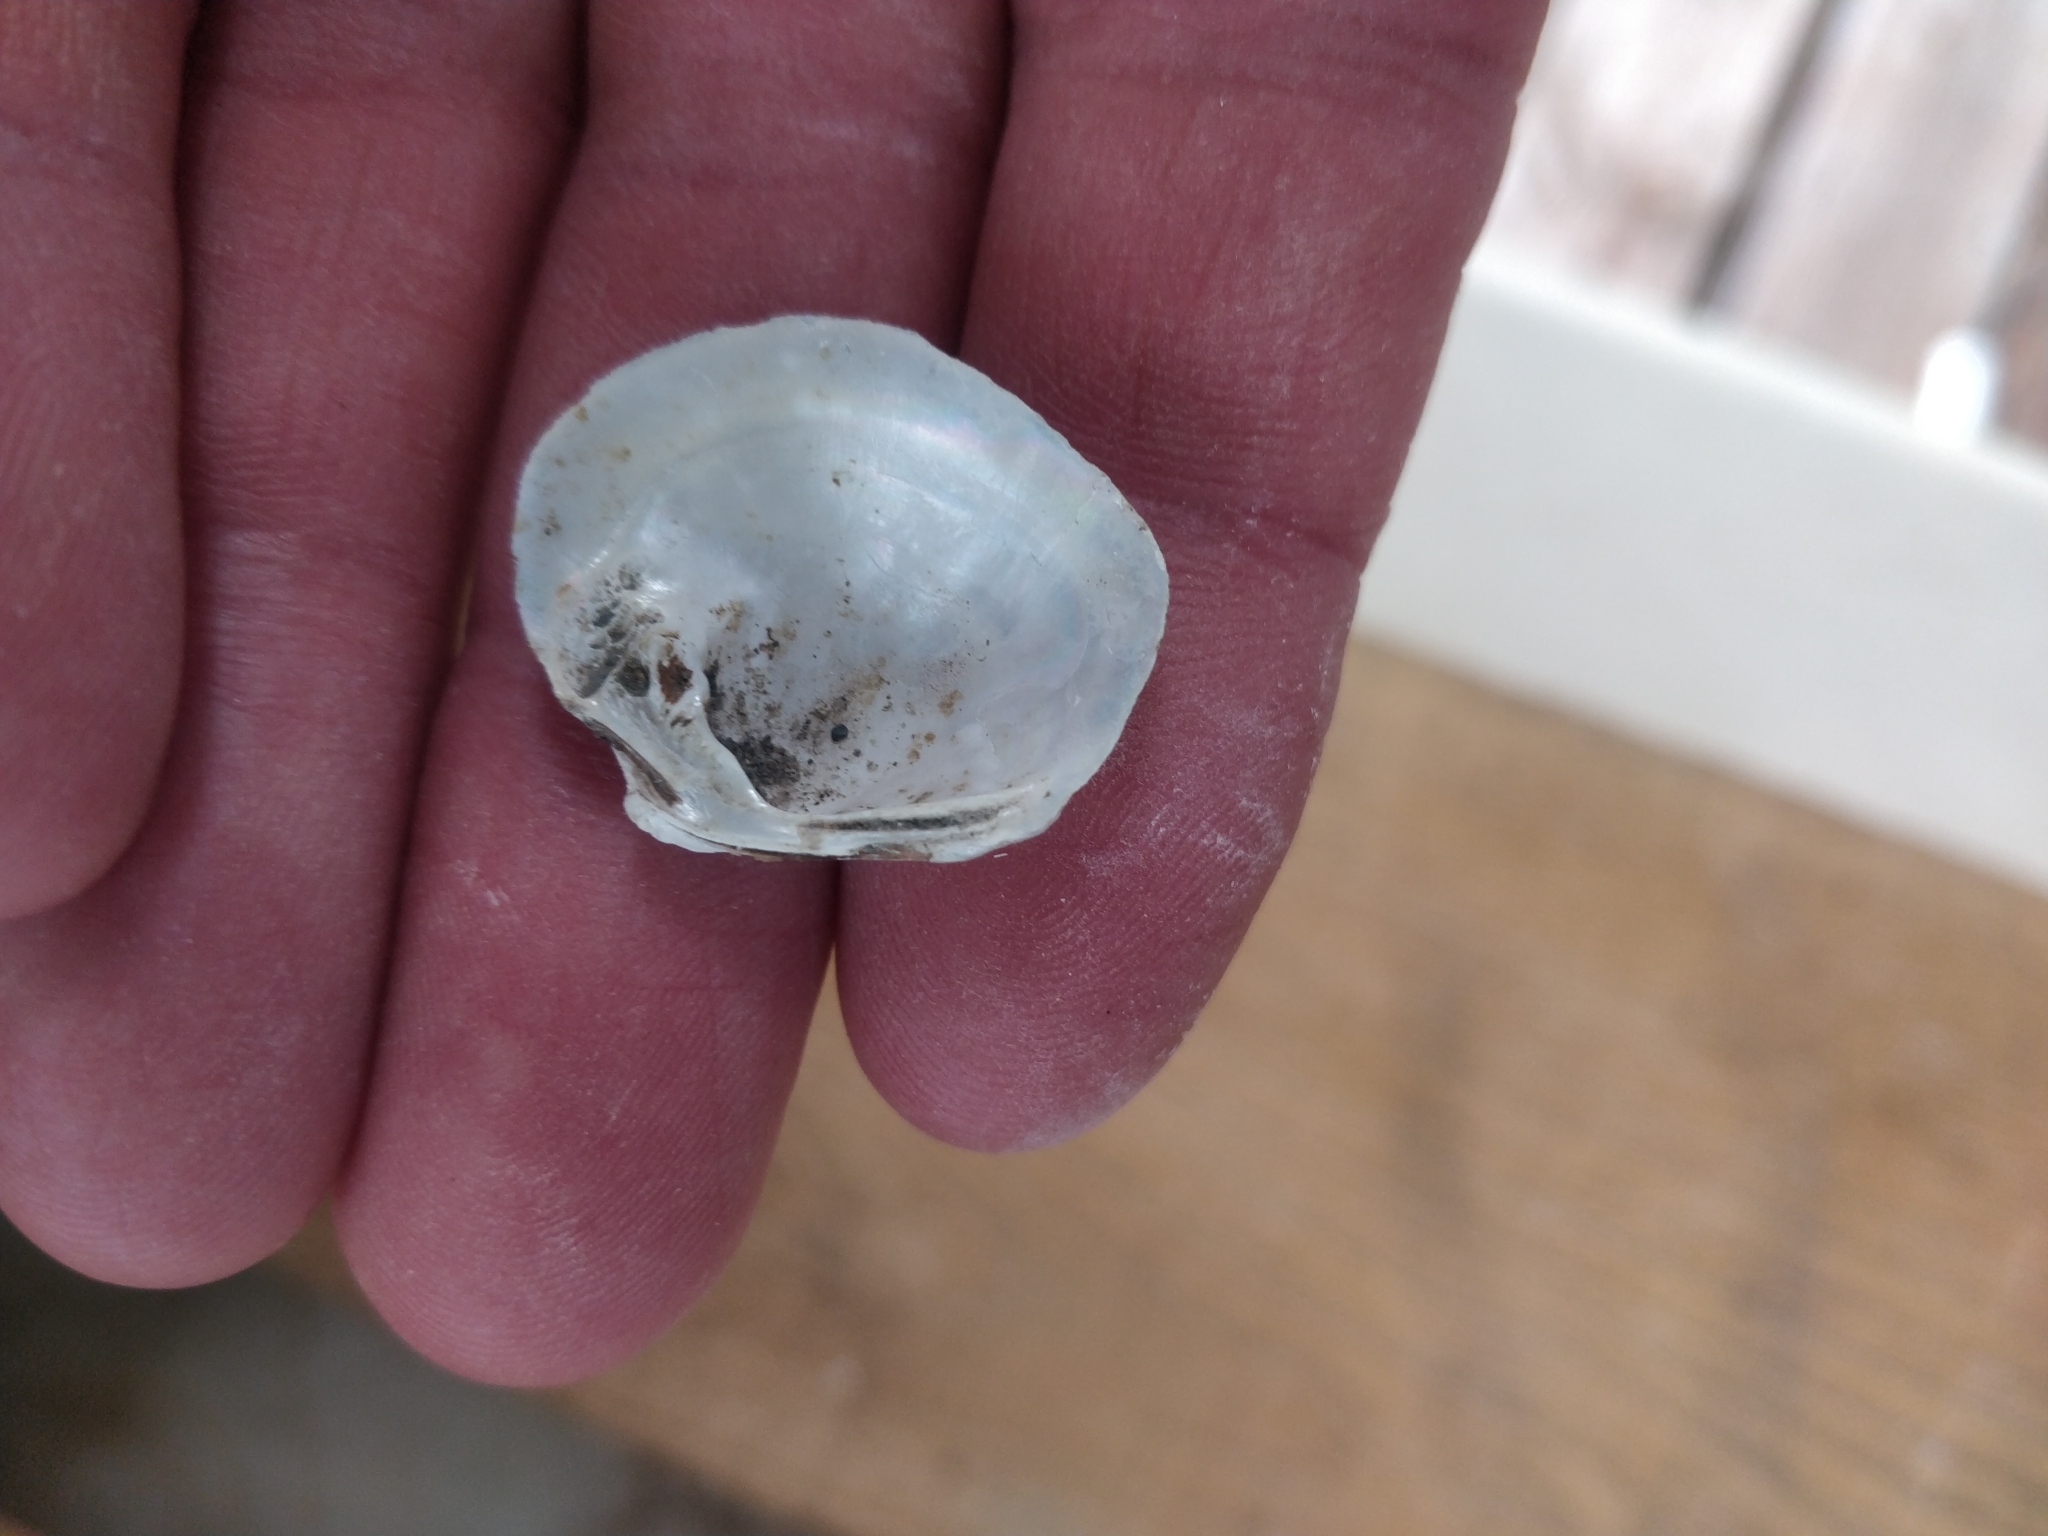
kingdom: Animalia
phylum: Mollusca
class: Bivalvia
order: Unionida
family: Unionidae
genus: Cyclonaias
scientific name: Cyclonaias pustulosa
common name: Pimpleback
